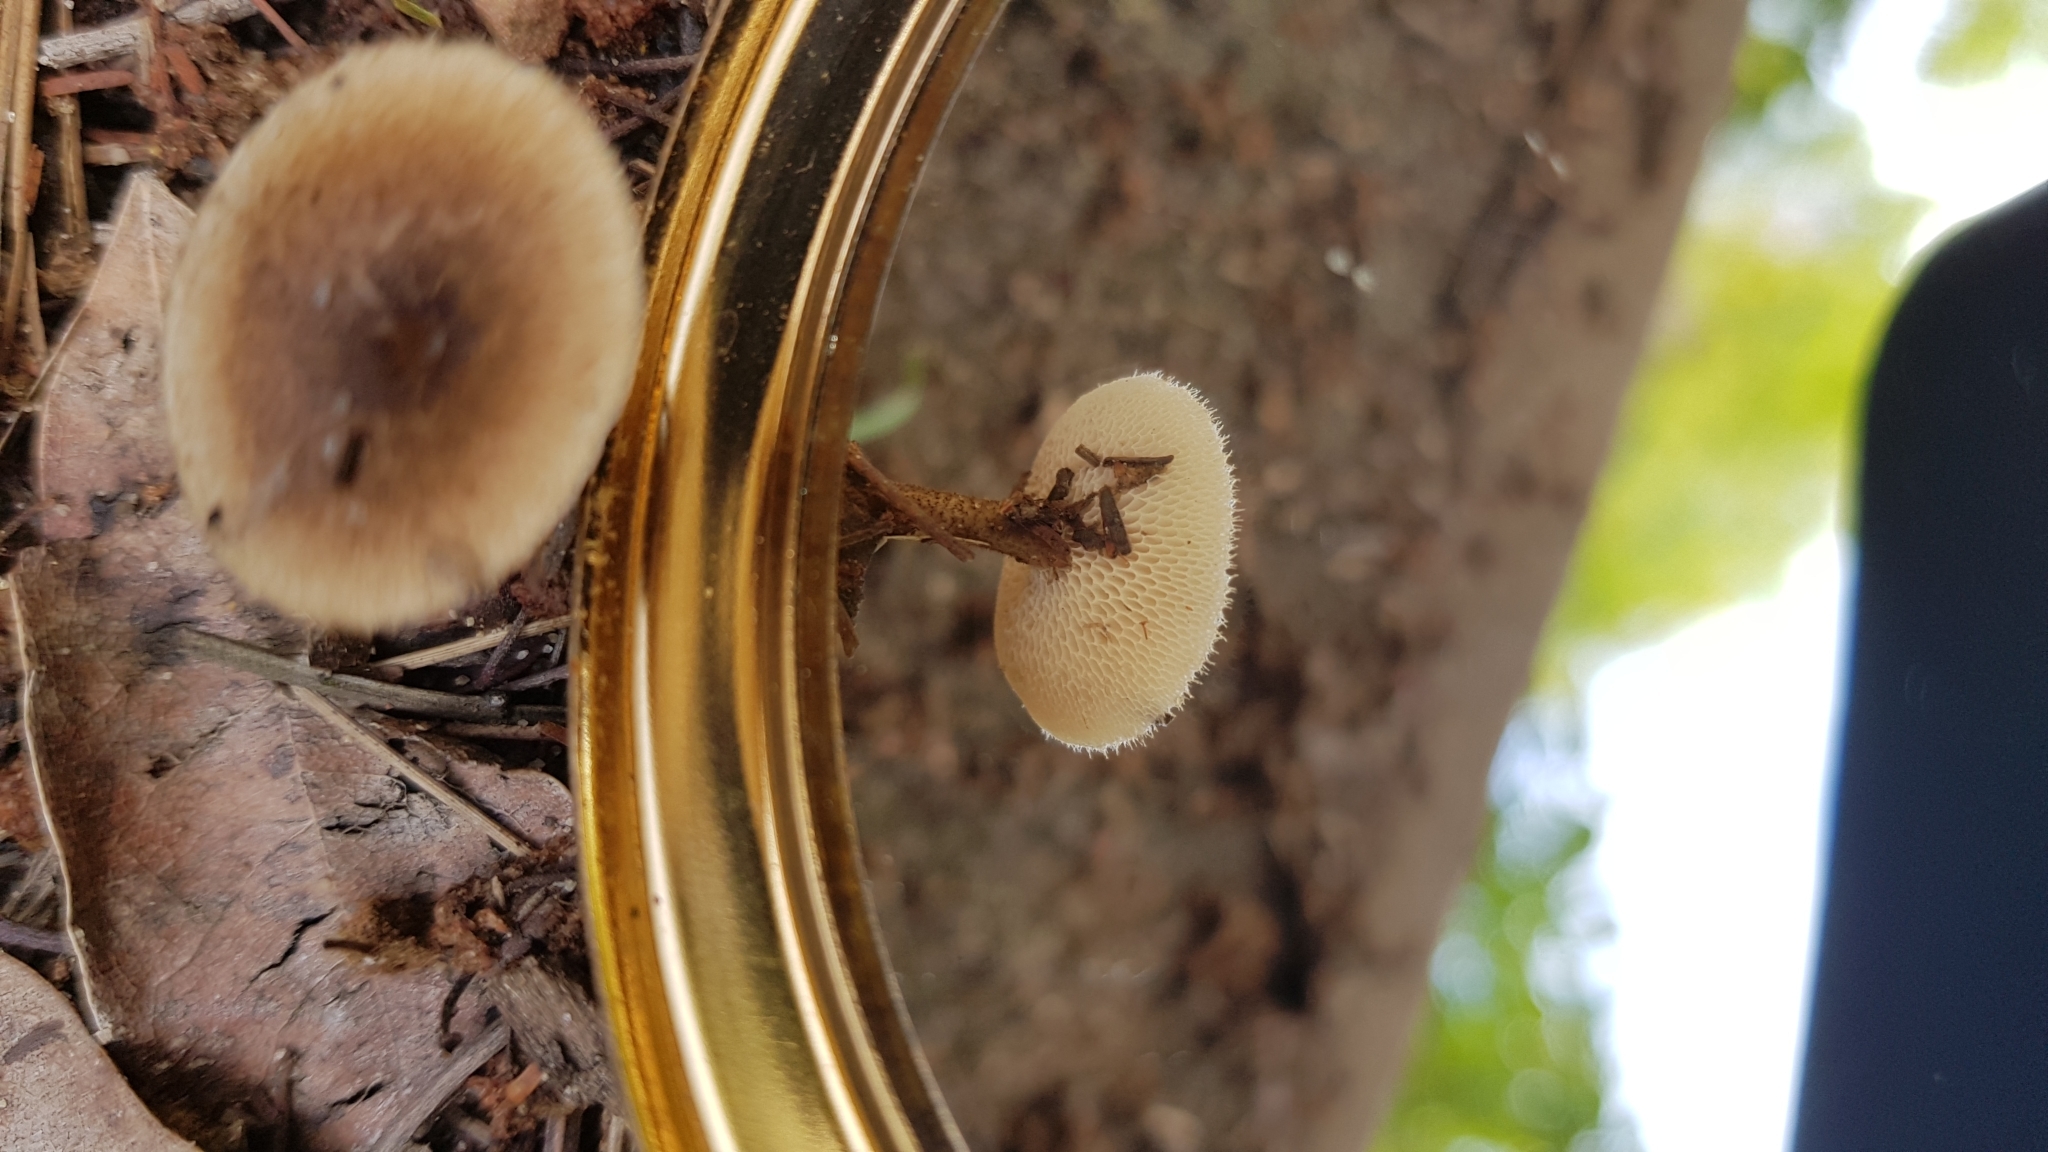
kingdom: Fungi
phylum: Basidiomycota
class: Agaricomycetes
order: Polyporales
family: Polyporaceae
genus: Lentinus
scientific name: Lentinus arcularius
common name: Spring polypore
